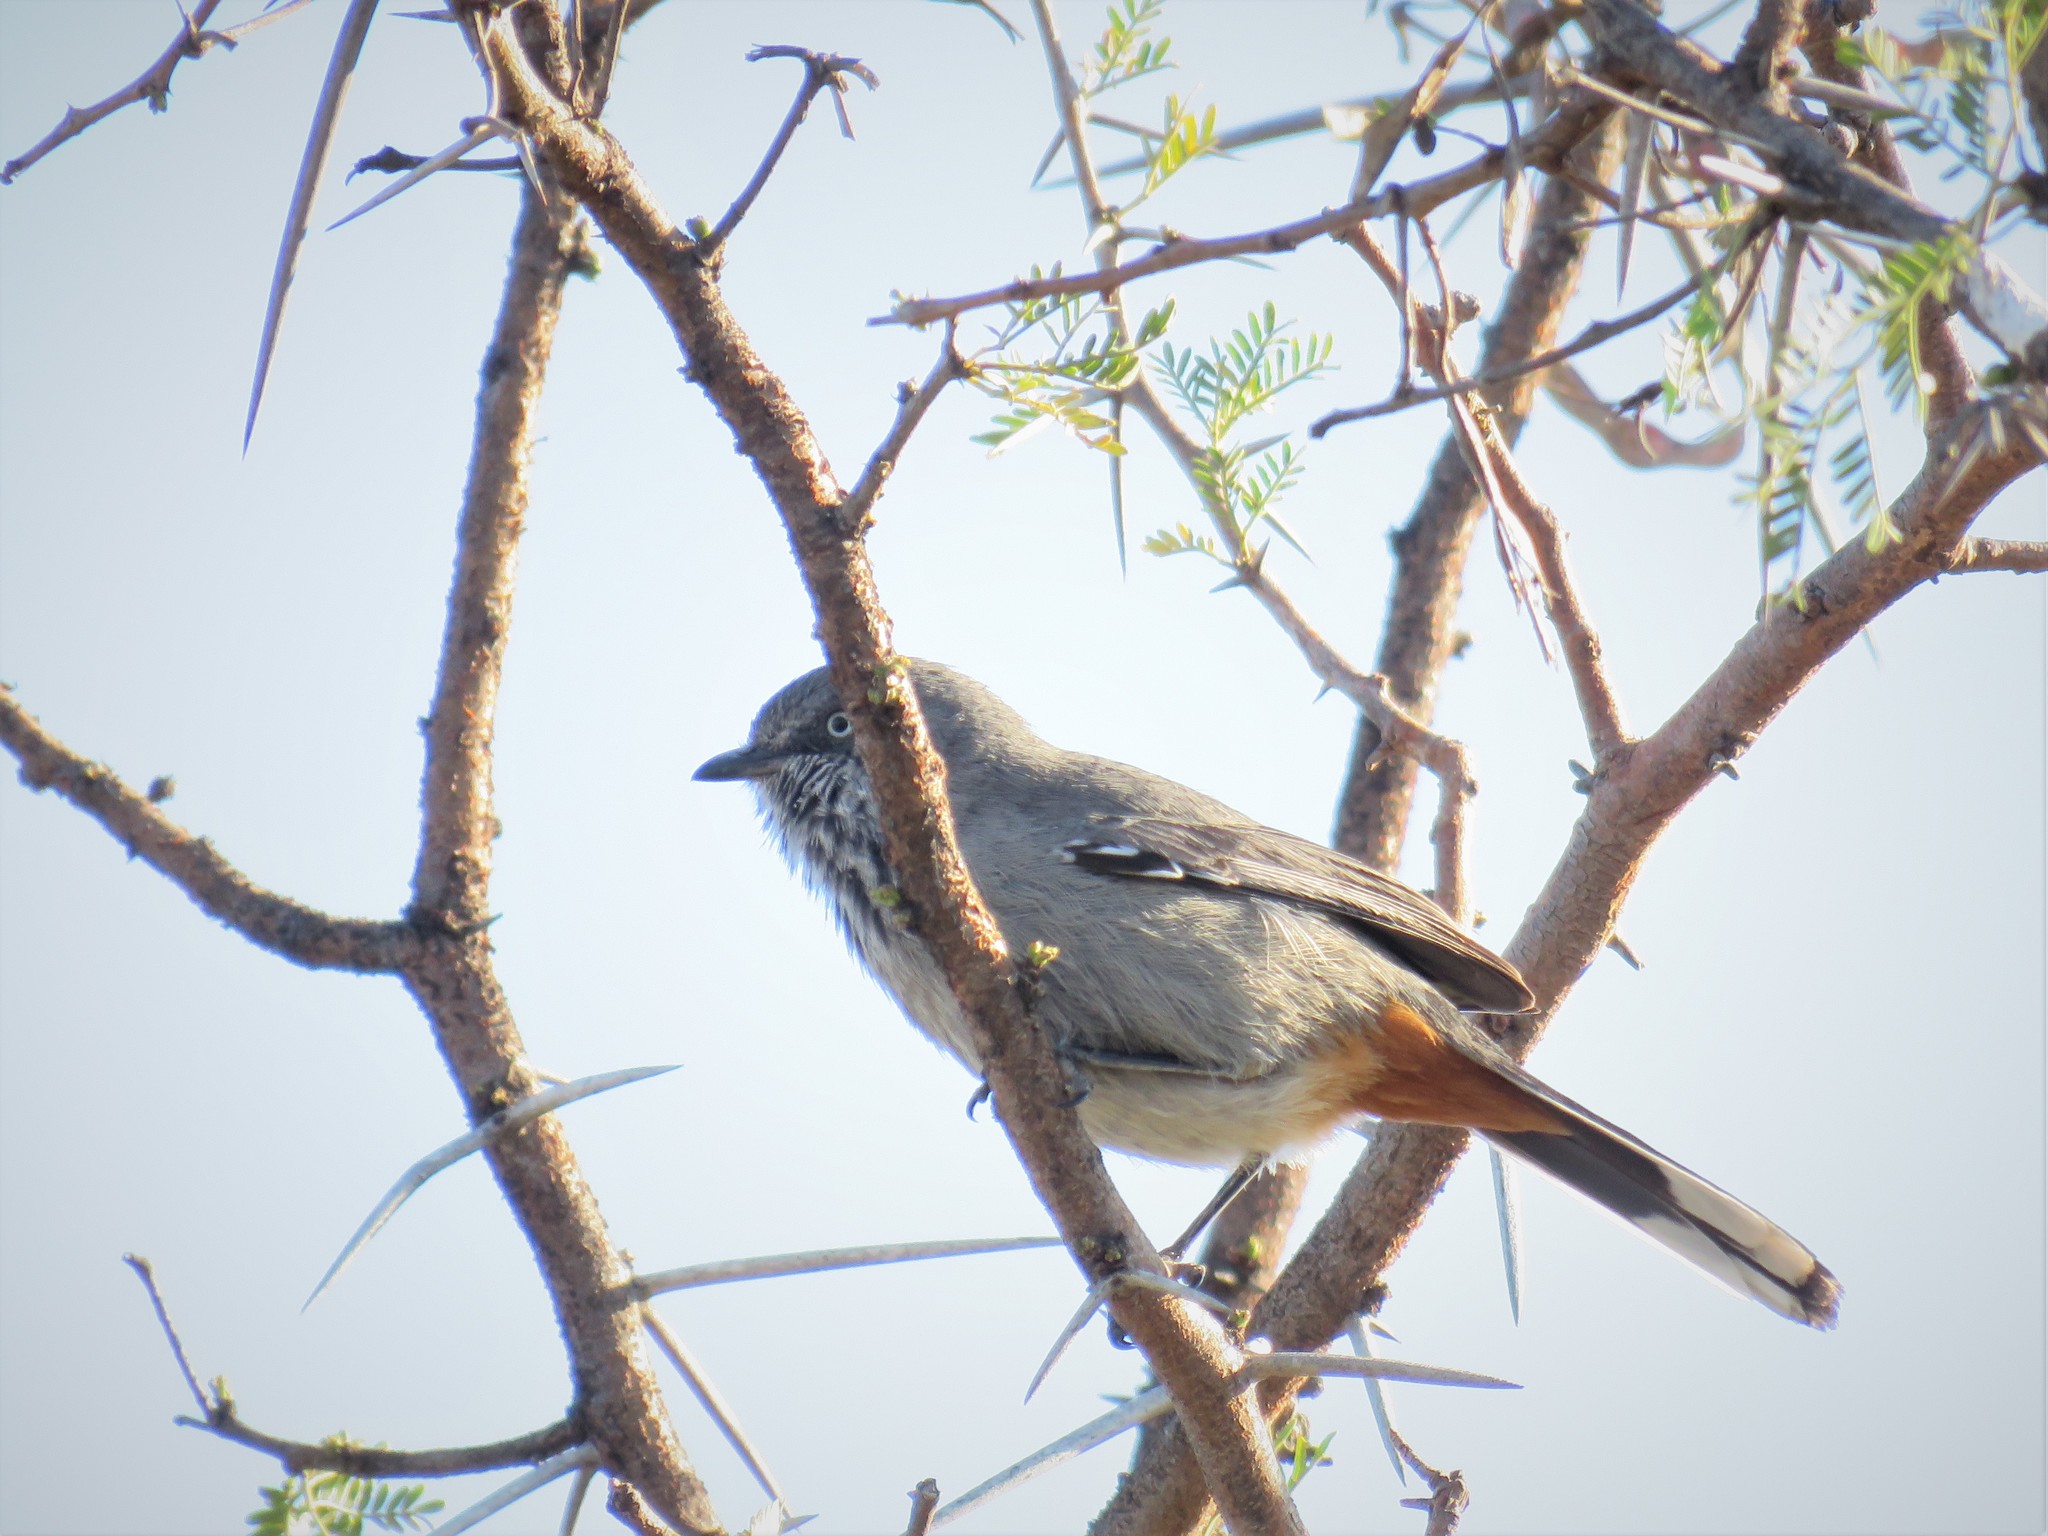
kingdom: Animalia
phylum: Chordata
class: Aves
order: Passeriformes
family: Sylviidae
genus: Curruca
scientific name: Curruca subcoerulea
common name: Chestnut-vented warbler
